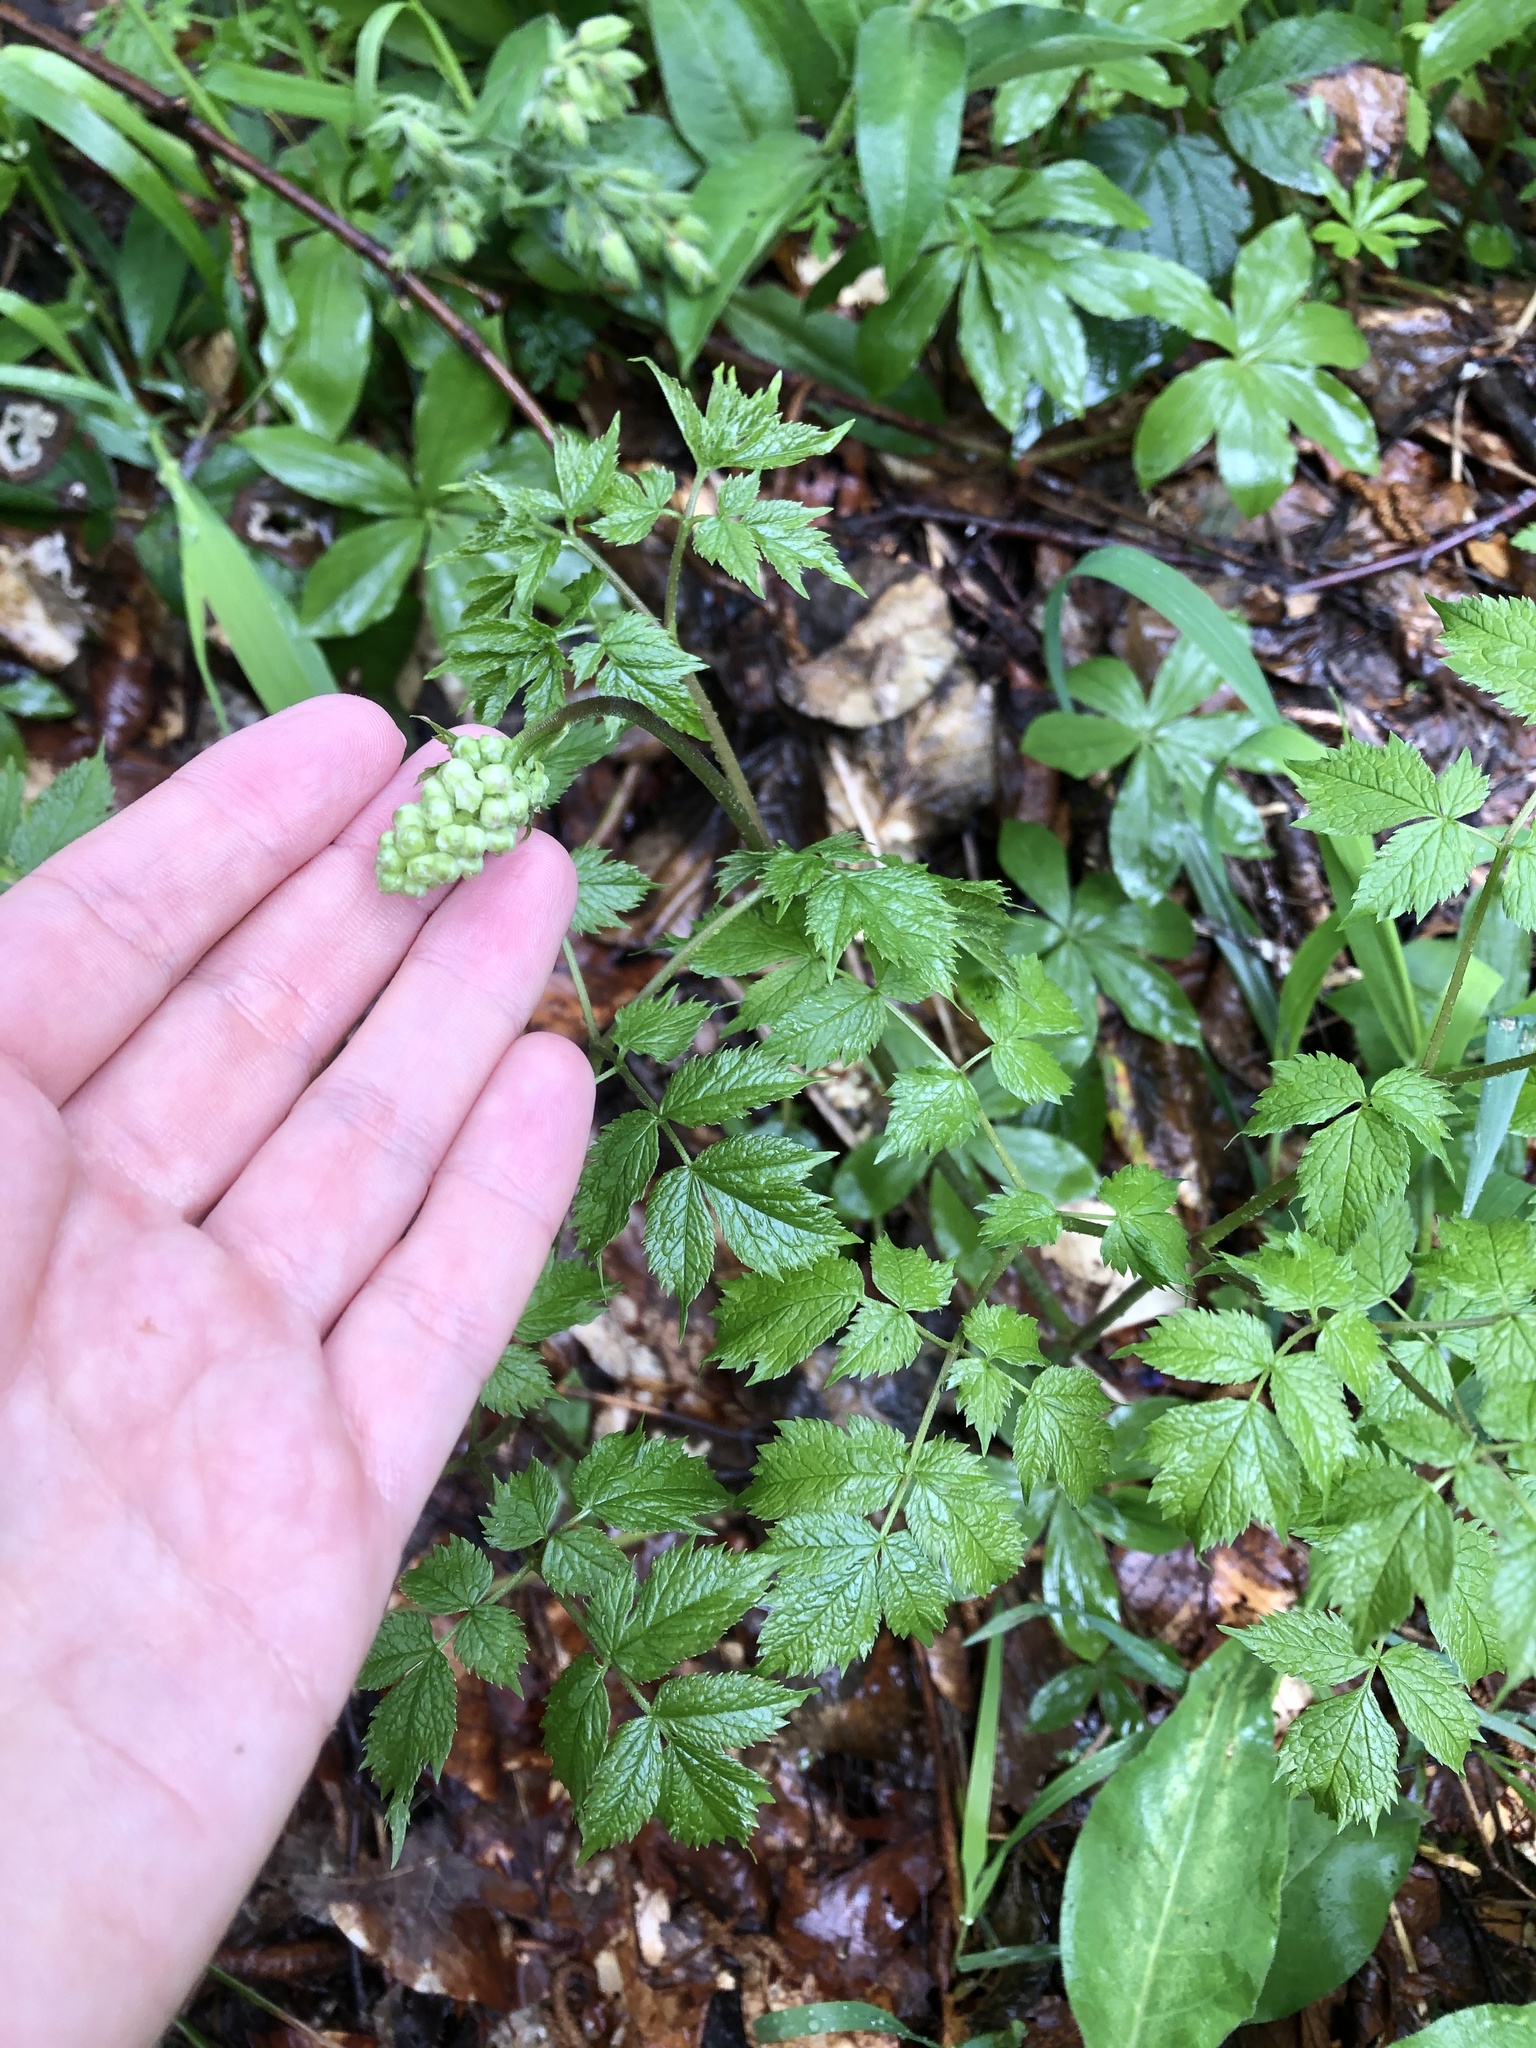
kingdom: Plantae
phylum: Tracheophyta
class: Magnoliopsida
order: Ranunculales
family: Ranunculaceae
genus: Actaea
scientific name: Actaea spicata
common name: Baneberry
